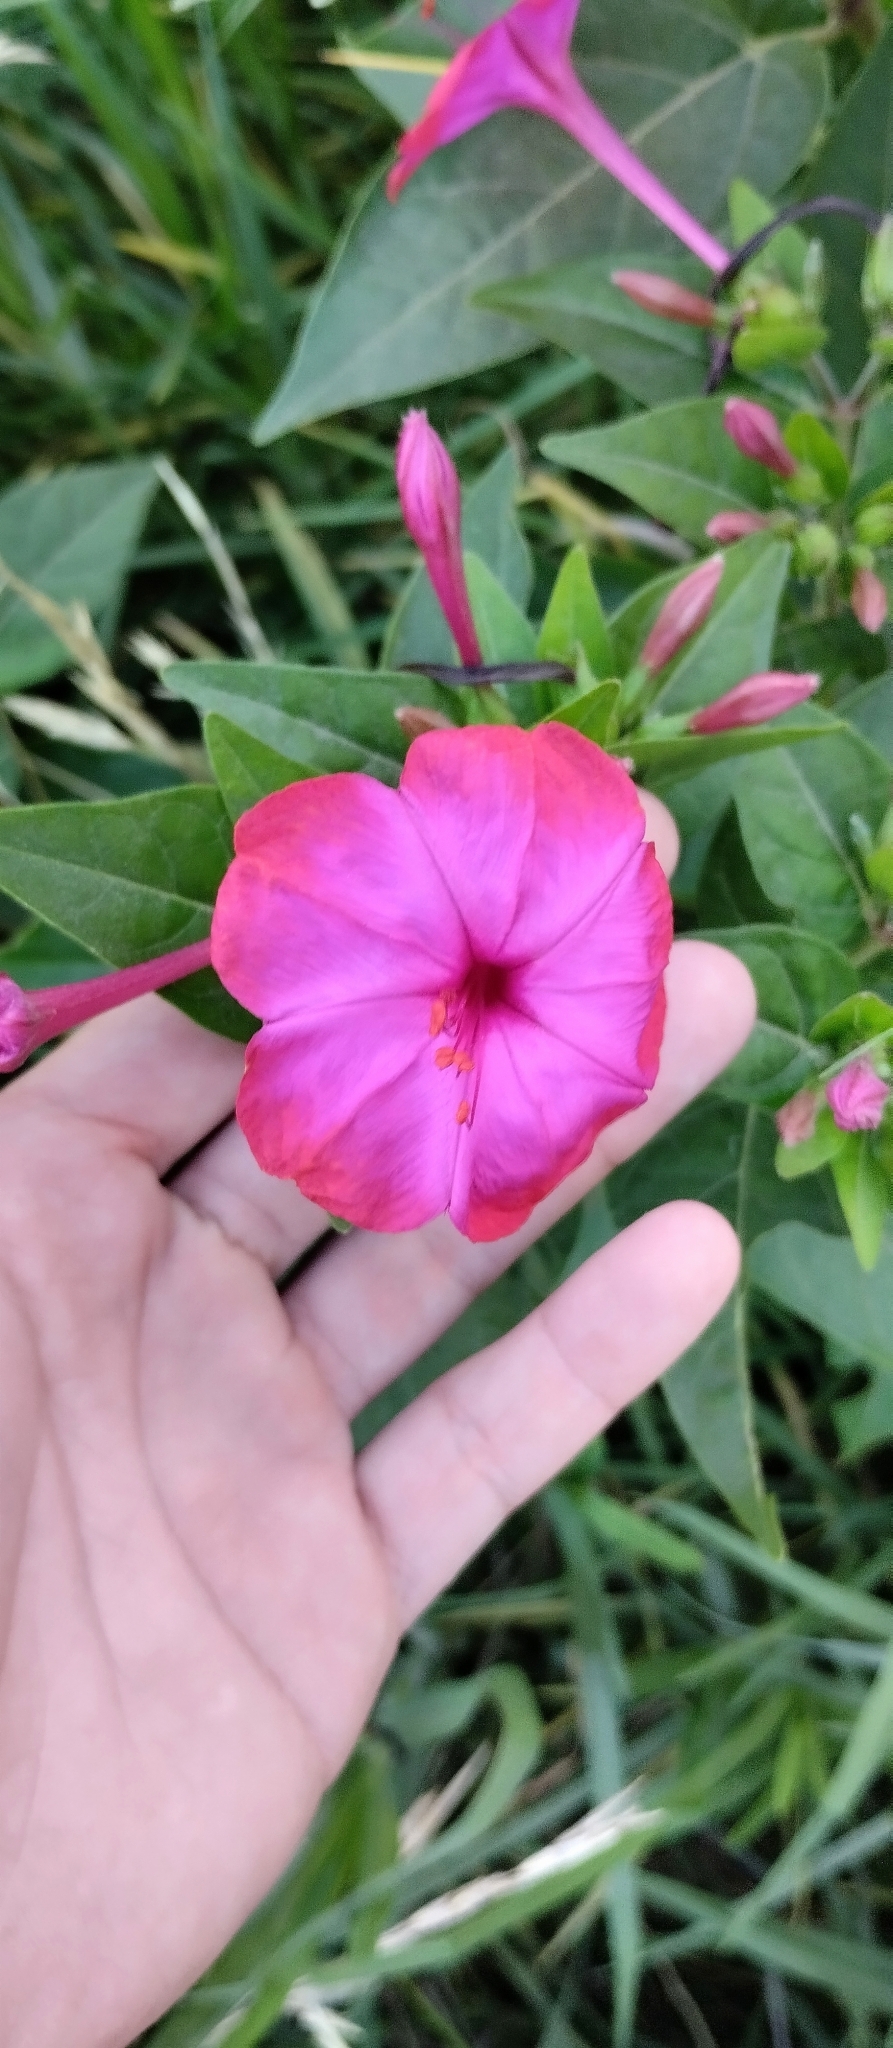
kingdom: Plantae
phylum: Tracheophyta
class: Magnoliopsida
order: Caryophyllales
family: Nyctaginaceae
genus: Mirabilis
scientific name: Mirabilis jalapa
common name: Marvel-of-peru
